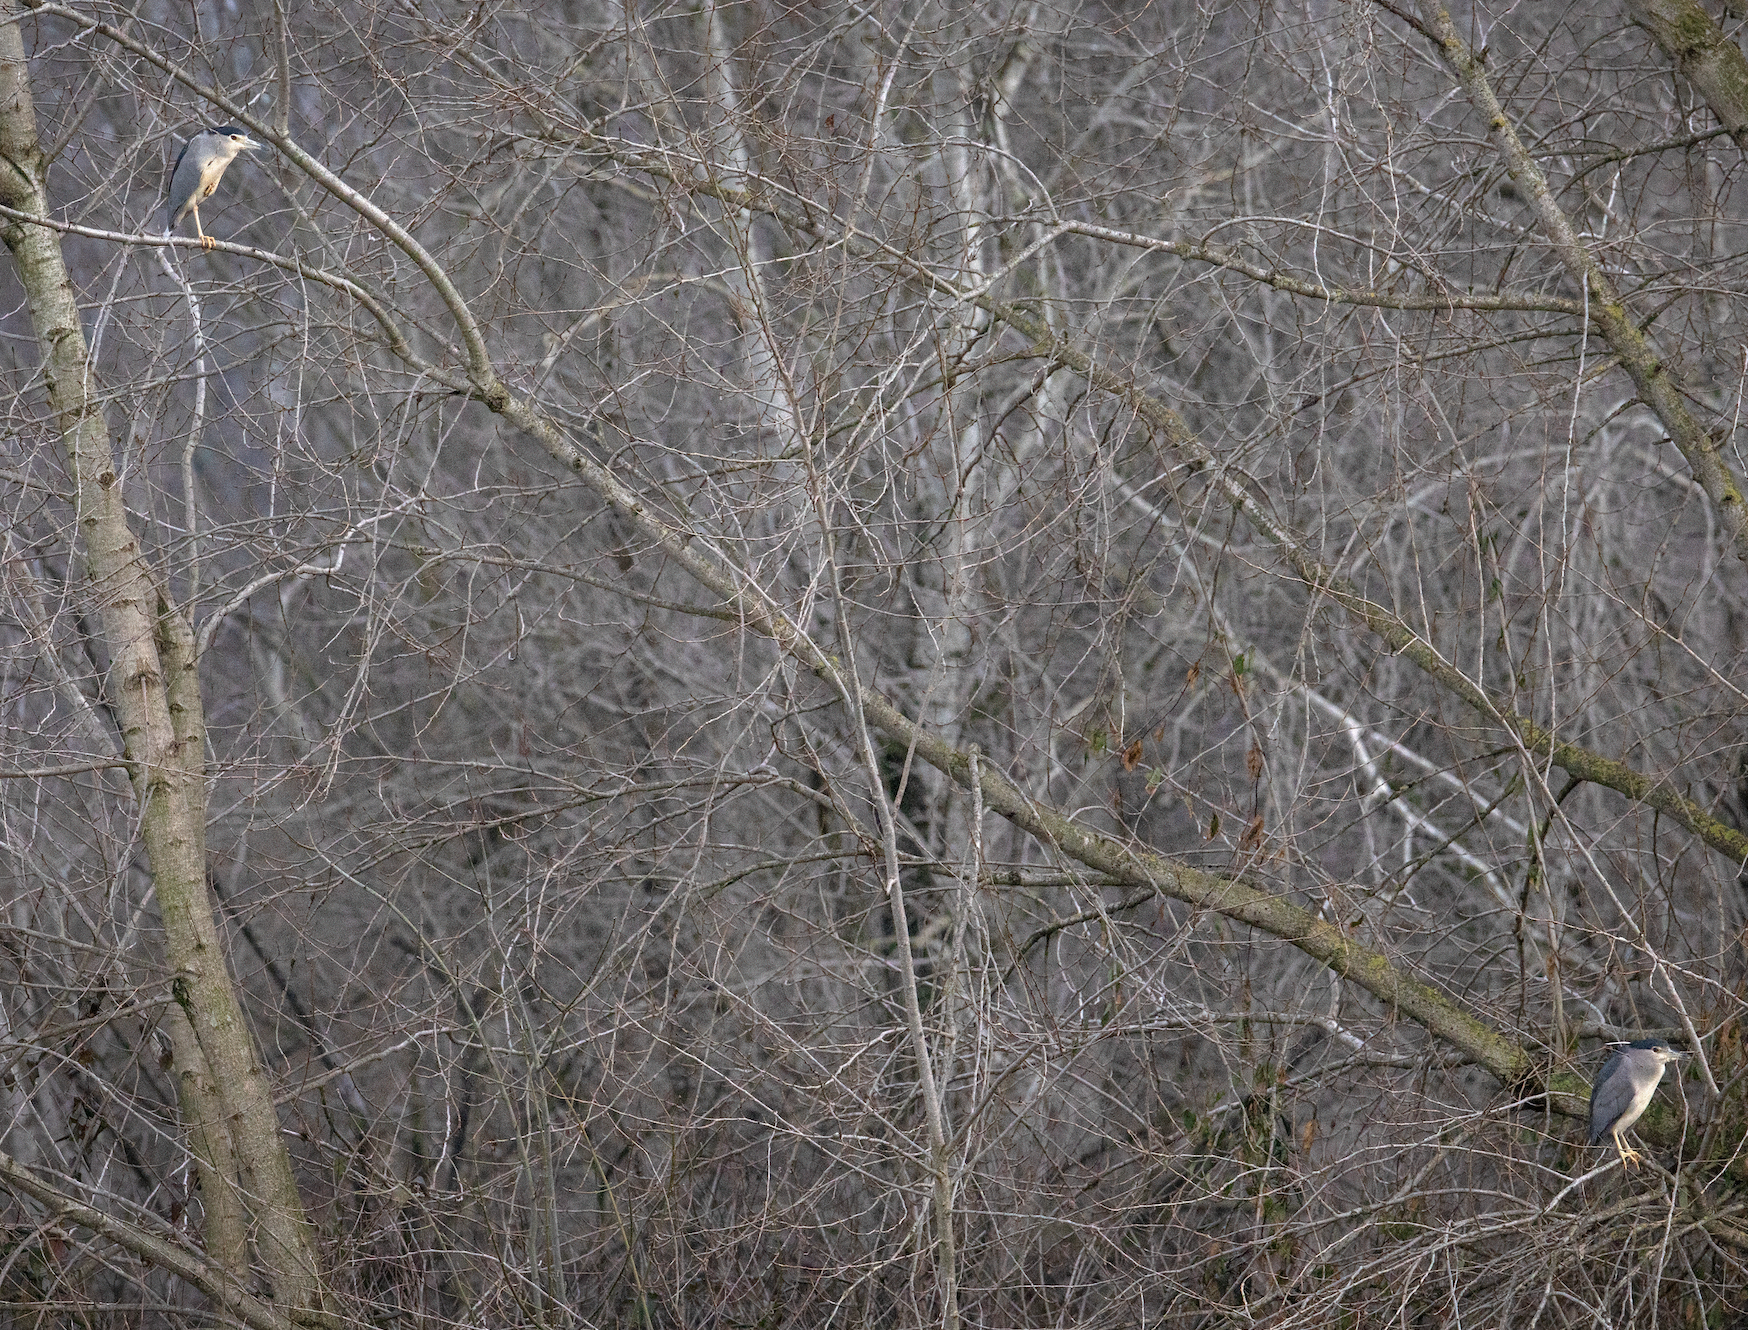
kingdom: Animalia
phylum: Chordata
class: Aves
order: Pelecaniformes
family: Ardeidae
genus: Nycticorax
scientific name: Nycticorax nycticorax
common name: Black-crowned night heron
